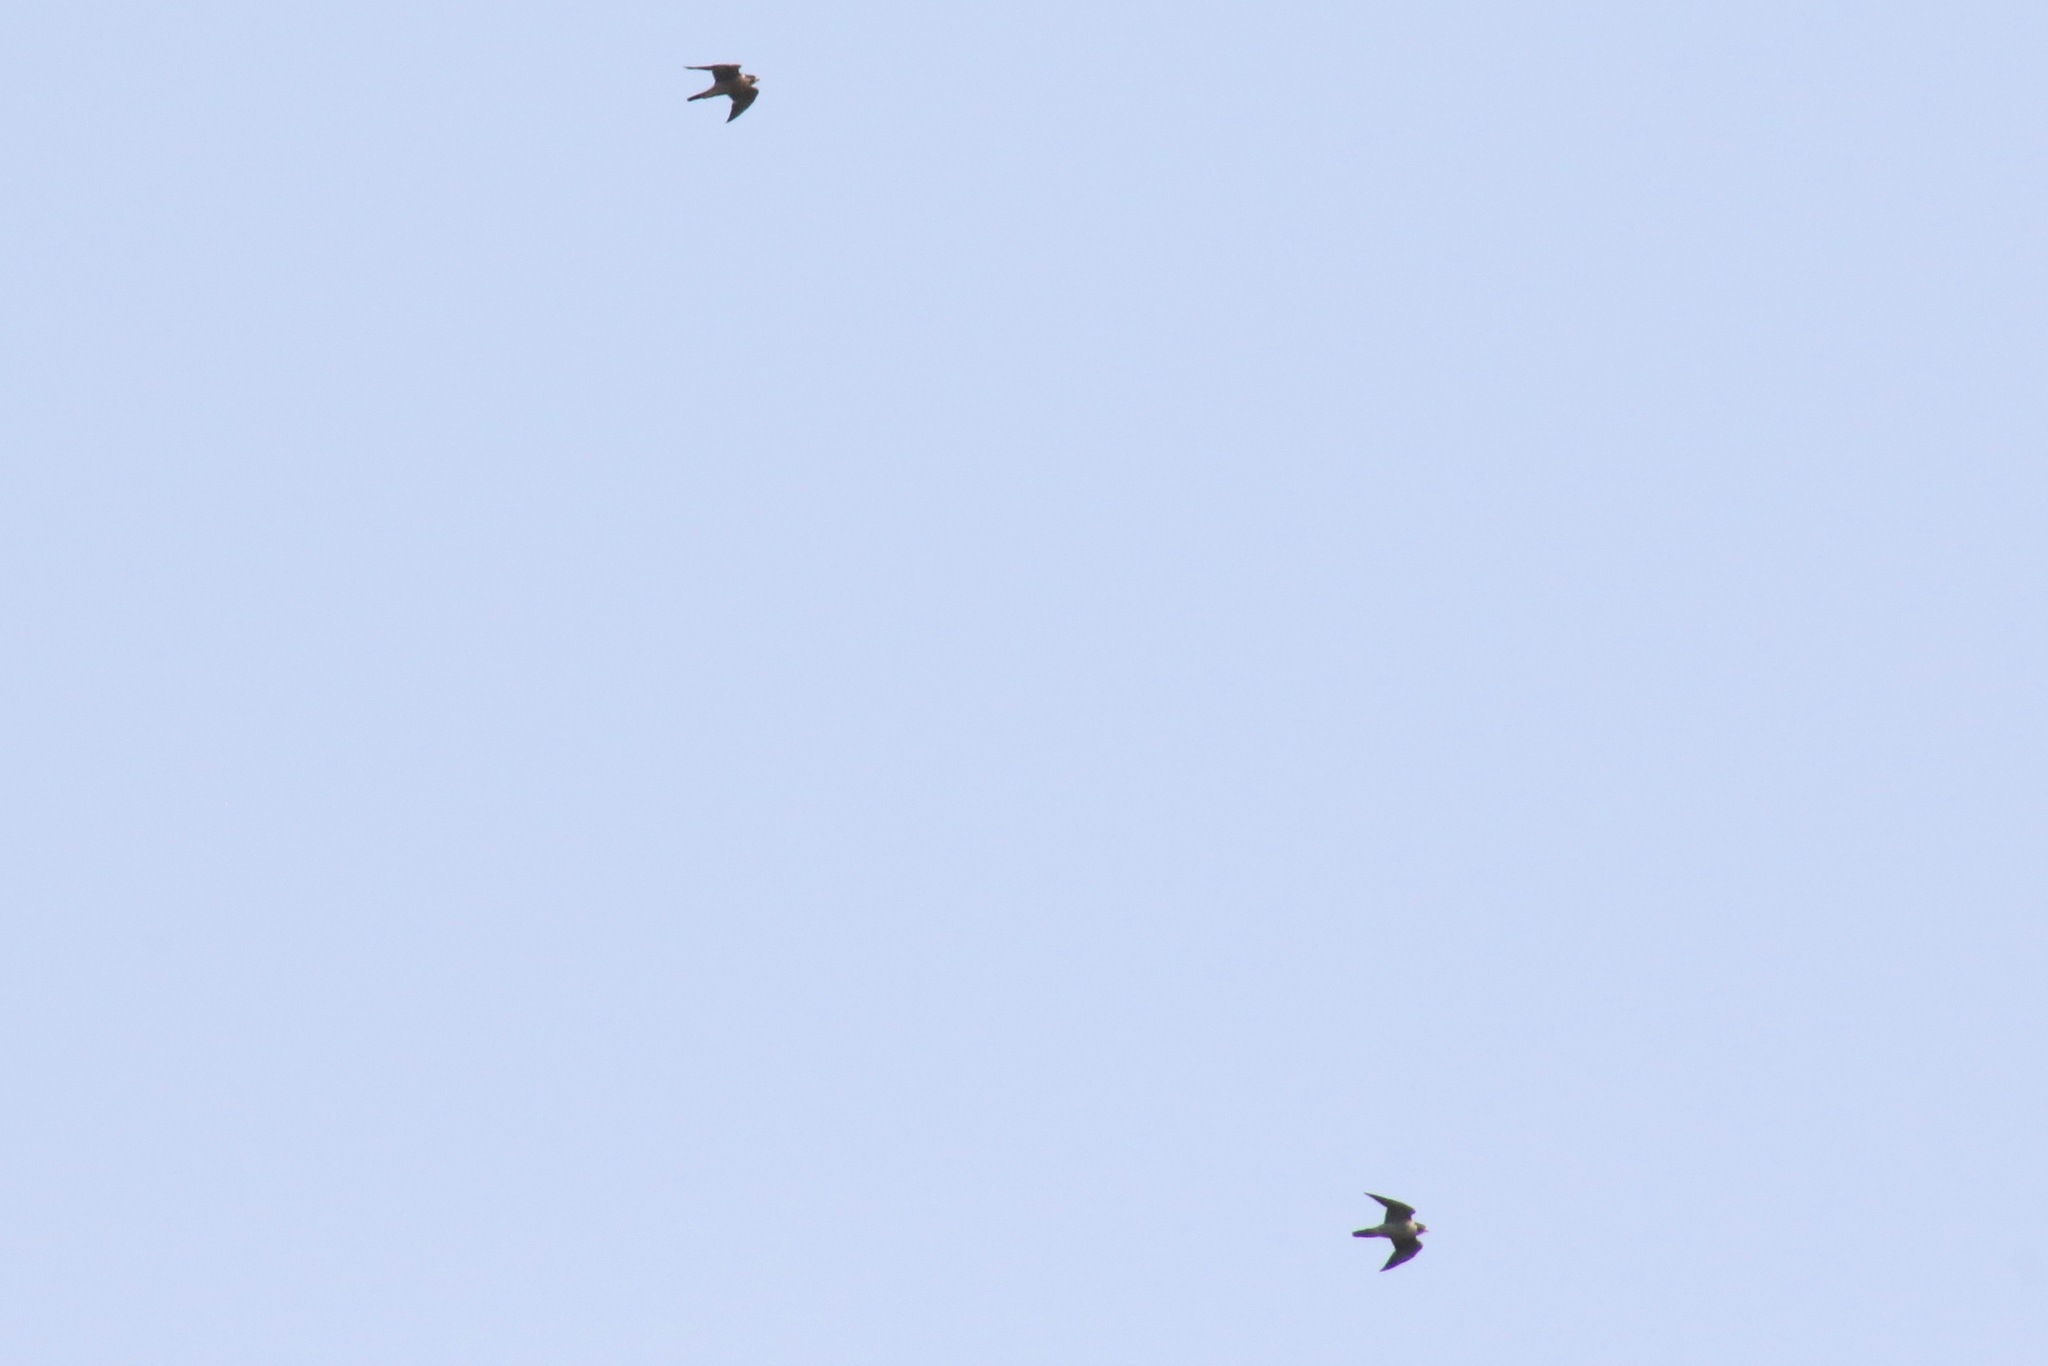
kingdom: Animalia
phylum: Chordata
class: Aves
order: Falconiformes
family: Falconidae
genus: Falco
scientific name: Falco peregrinus
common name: Peregrine falcon
